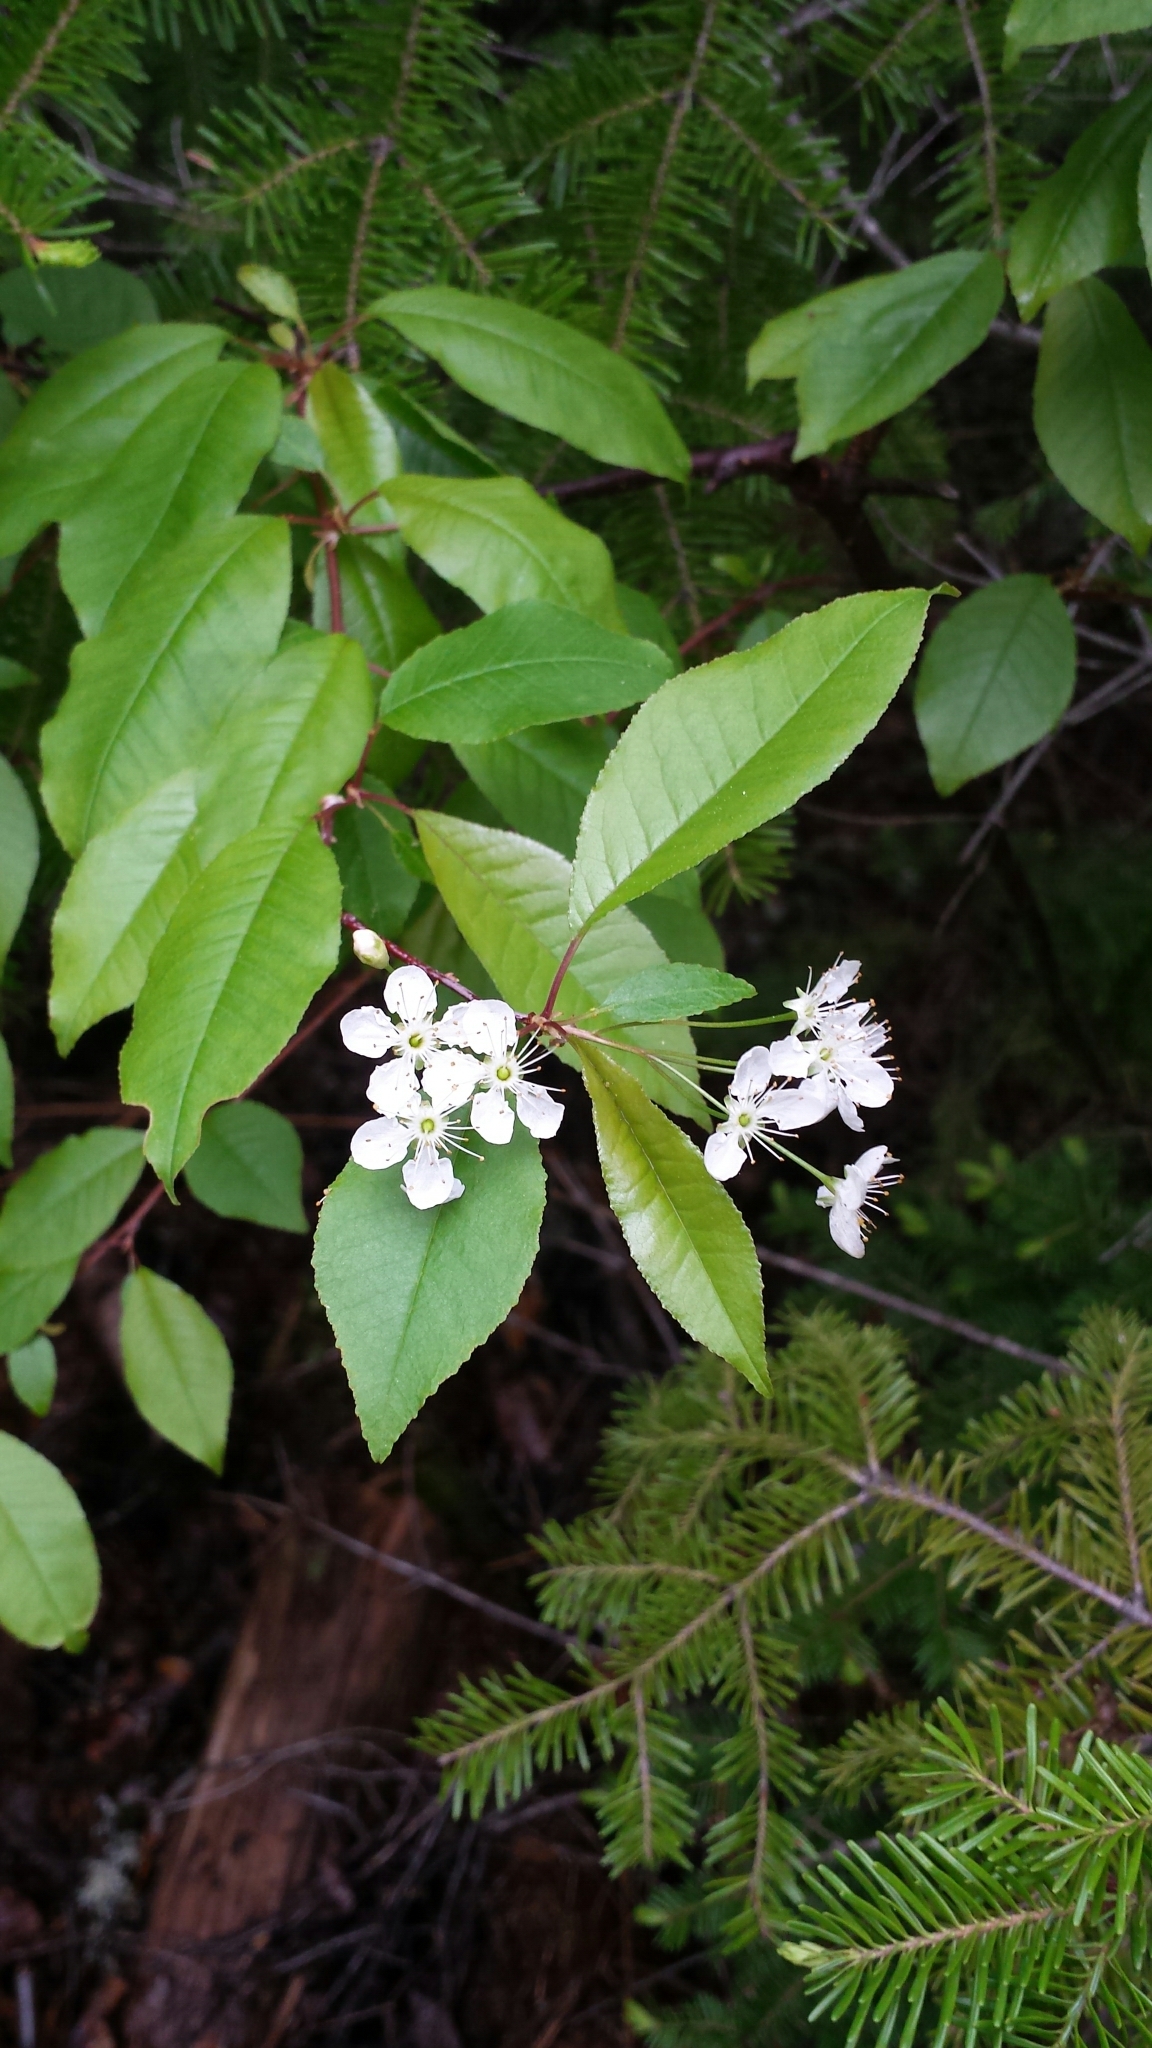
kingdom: Plantae
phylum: Tracheophyta
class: Magnoliopsida
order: Rosales
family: Rosaceae
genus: Prunus
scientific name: Prunus pensylvanica
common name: Pin cherry
